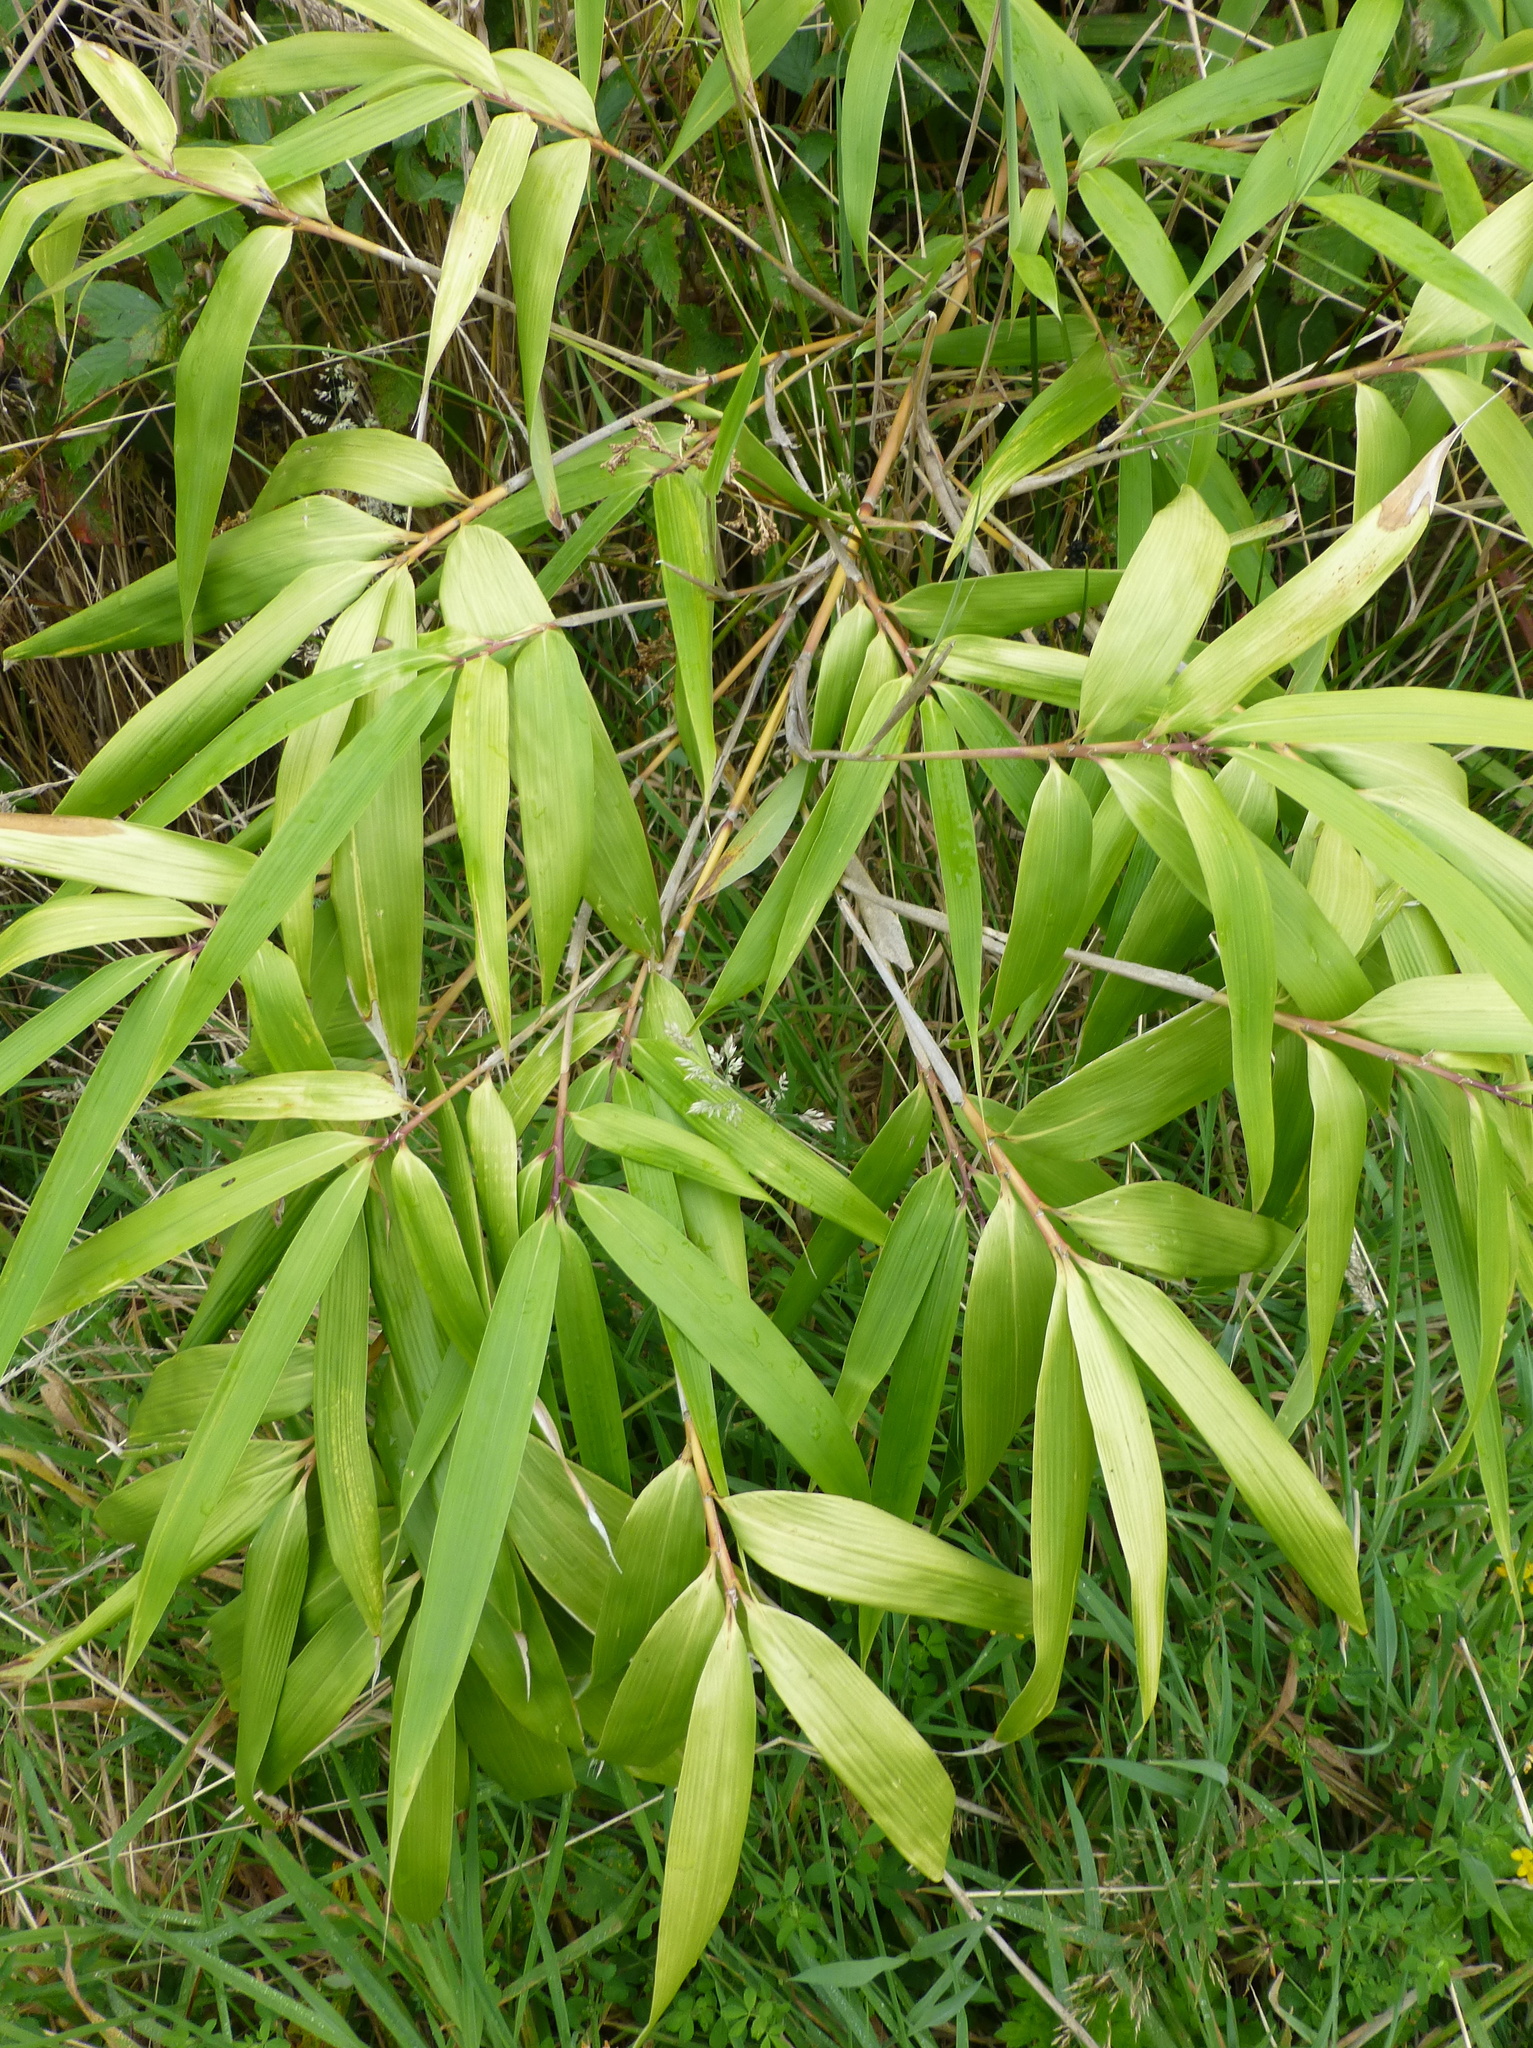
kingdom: Plantae
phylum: Tracheophyta
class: Liliopsida
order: Poales
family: Poaceae
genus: Pseudosasa
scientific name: Pseudosasa japonica
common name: Arrow bamboo
